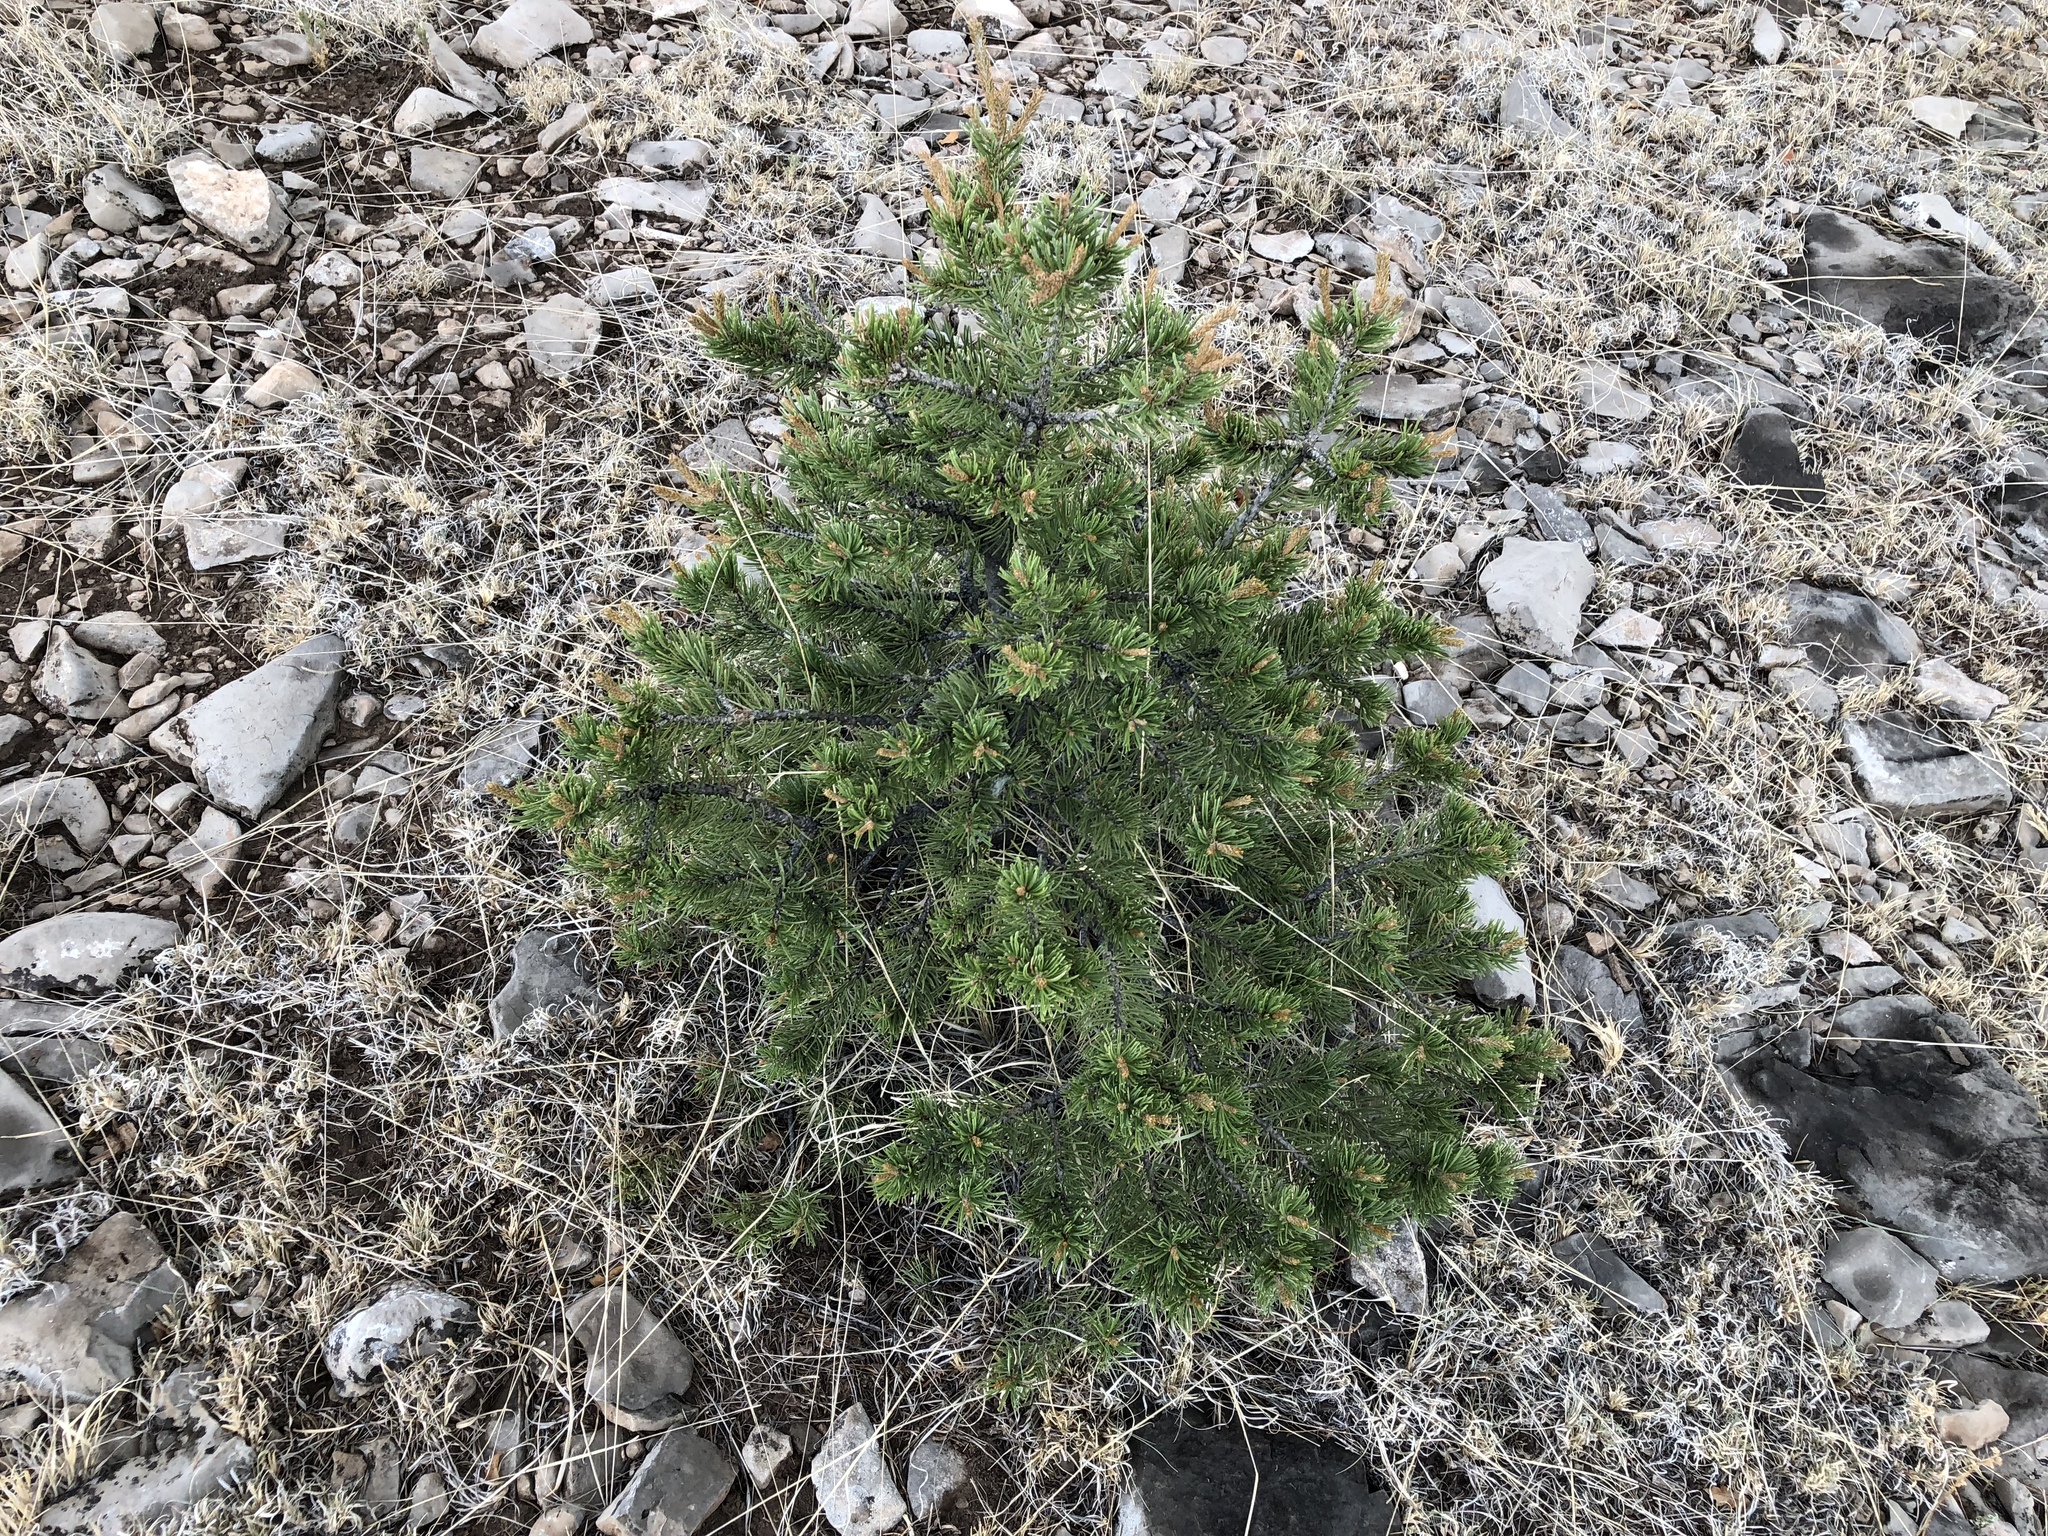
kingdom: Plantae
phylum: Tracheophyta
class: Pinopsida
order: Pinales
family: Pinaceae
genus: Pinus
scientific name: Pinus edulis
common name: Colorado pinyon
